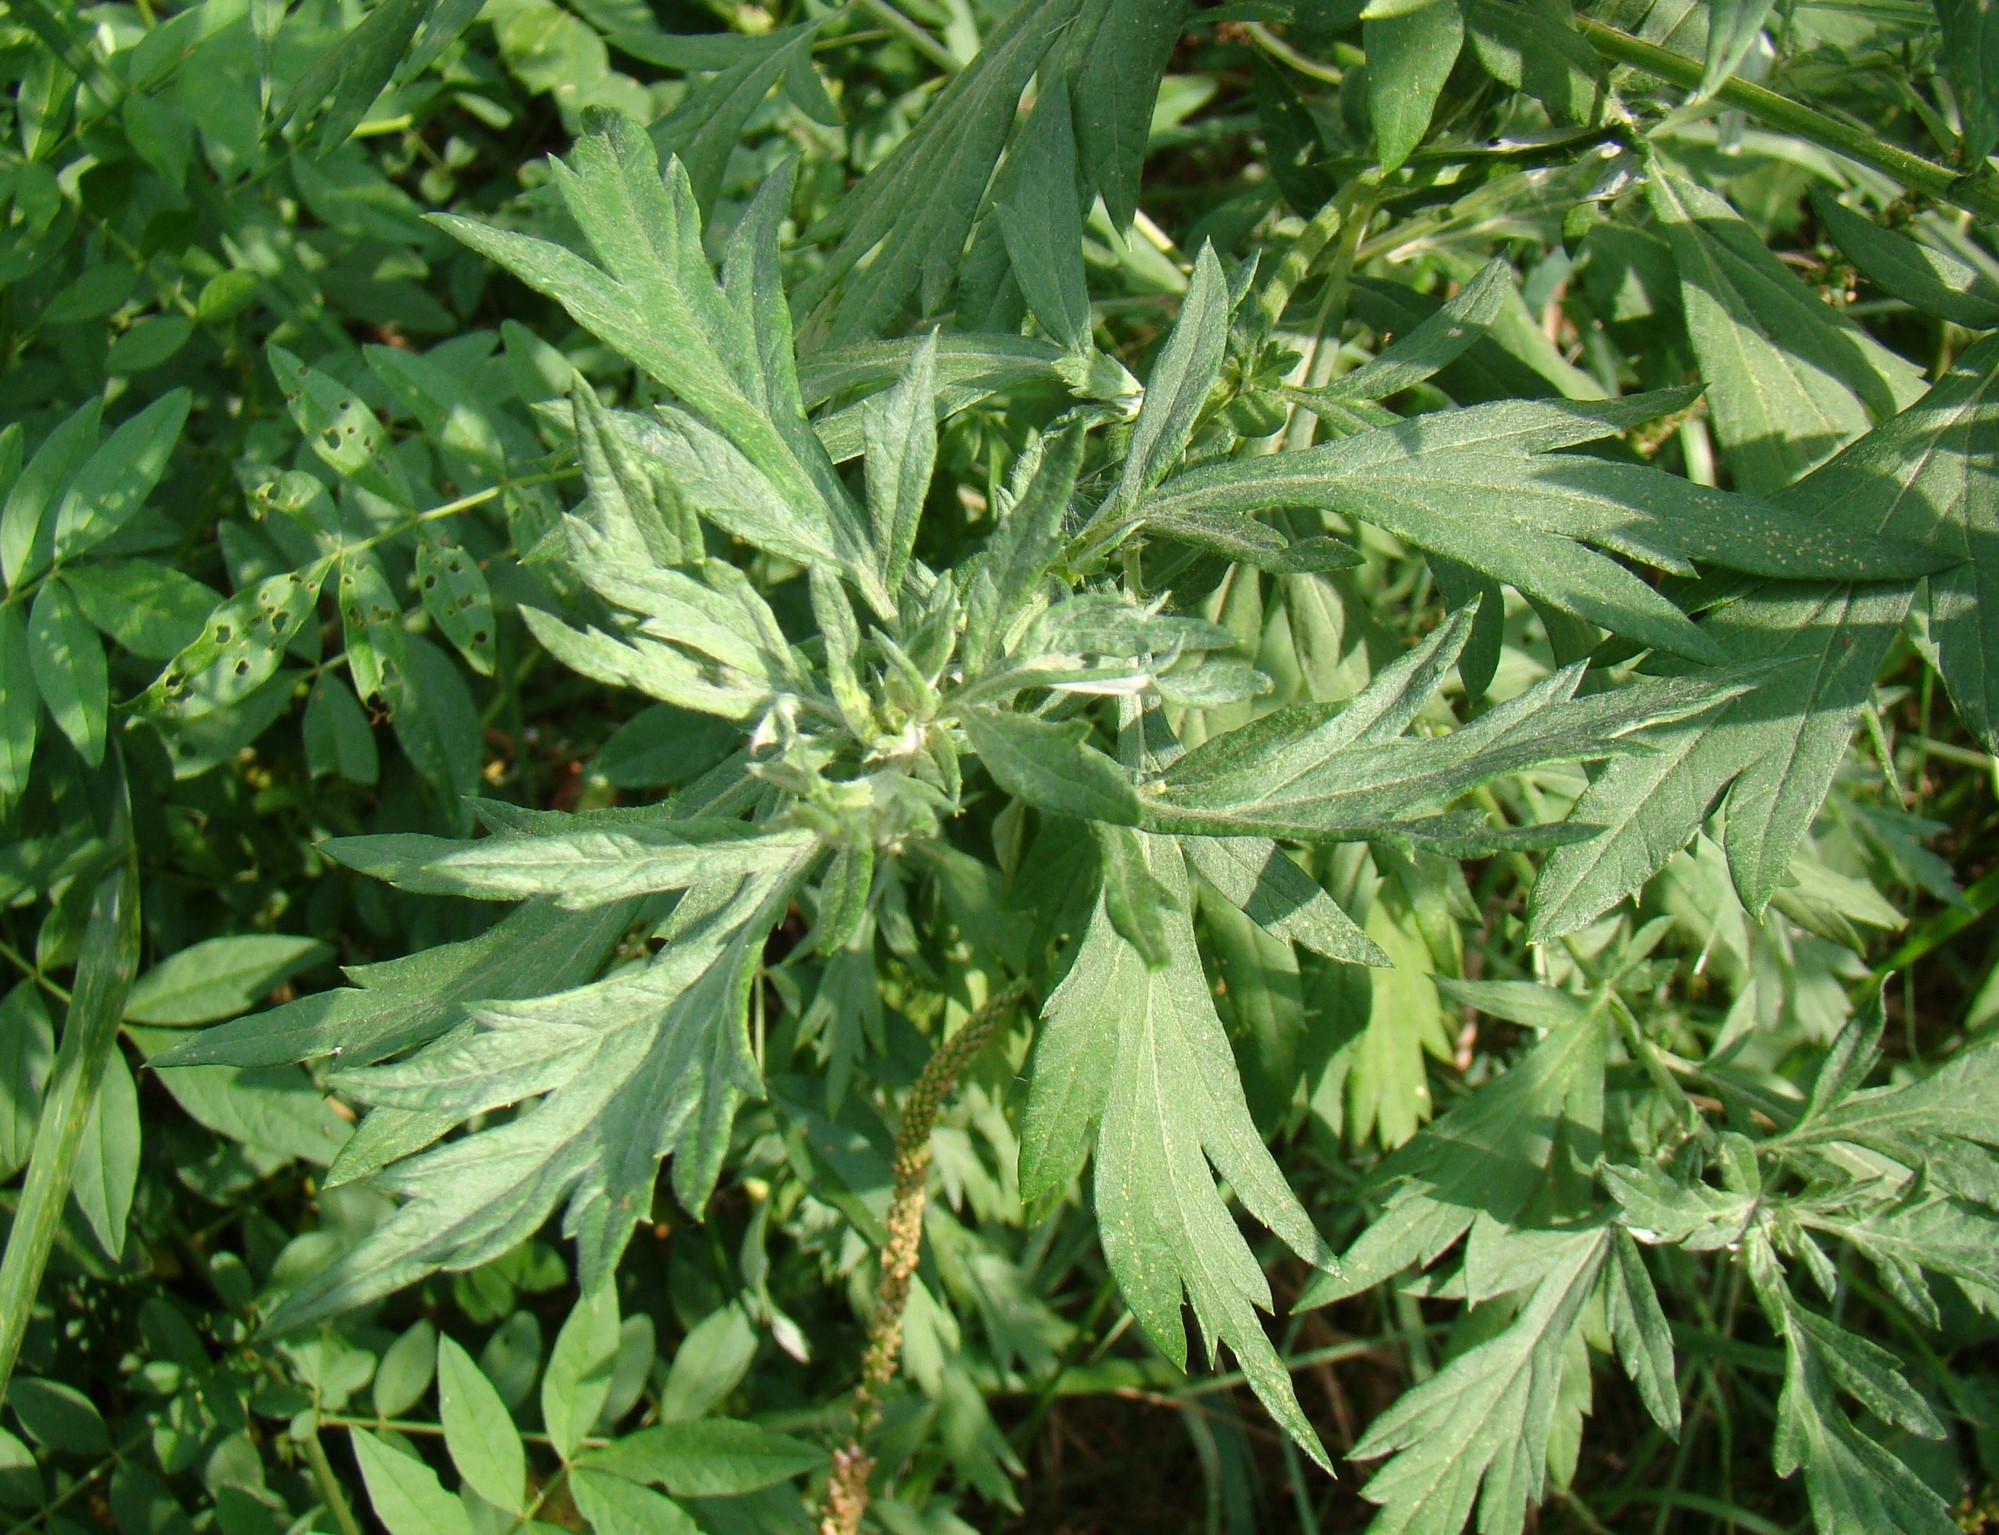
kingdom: Plantae
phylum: Tracheophyta
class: Magnoliopsida
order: Asterales
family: Asteraceae
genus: Artemisia
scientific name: Artemisia vulgaris
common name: Mugwort
